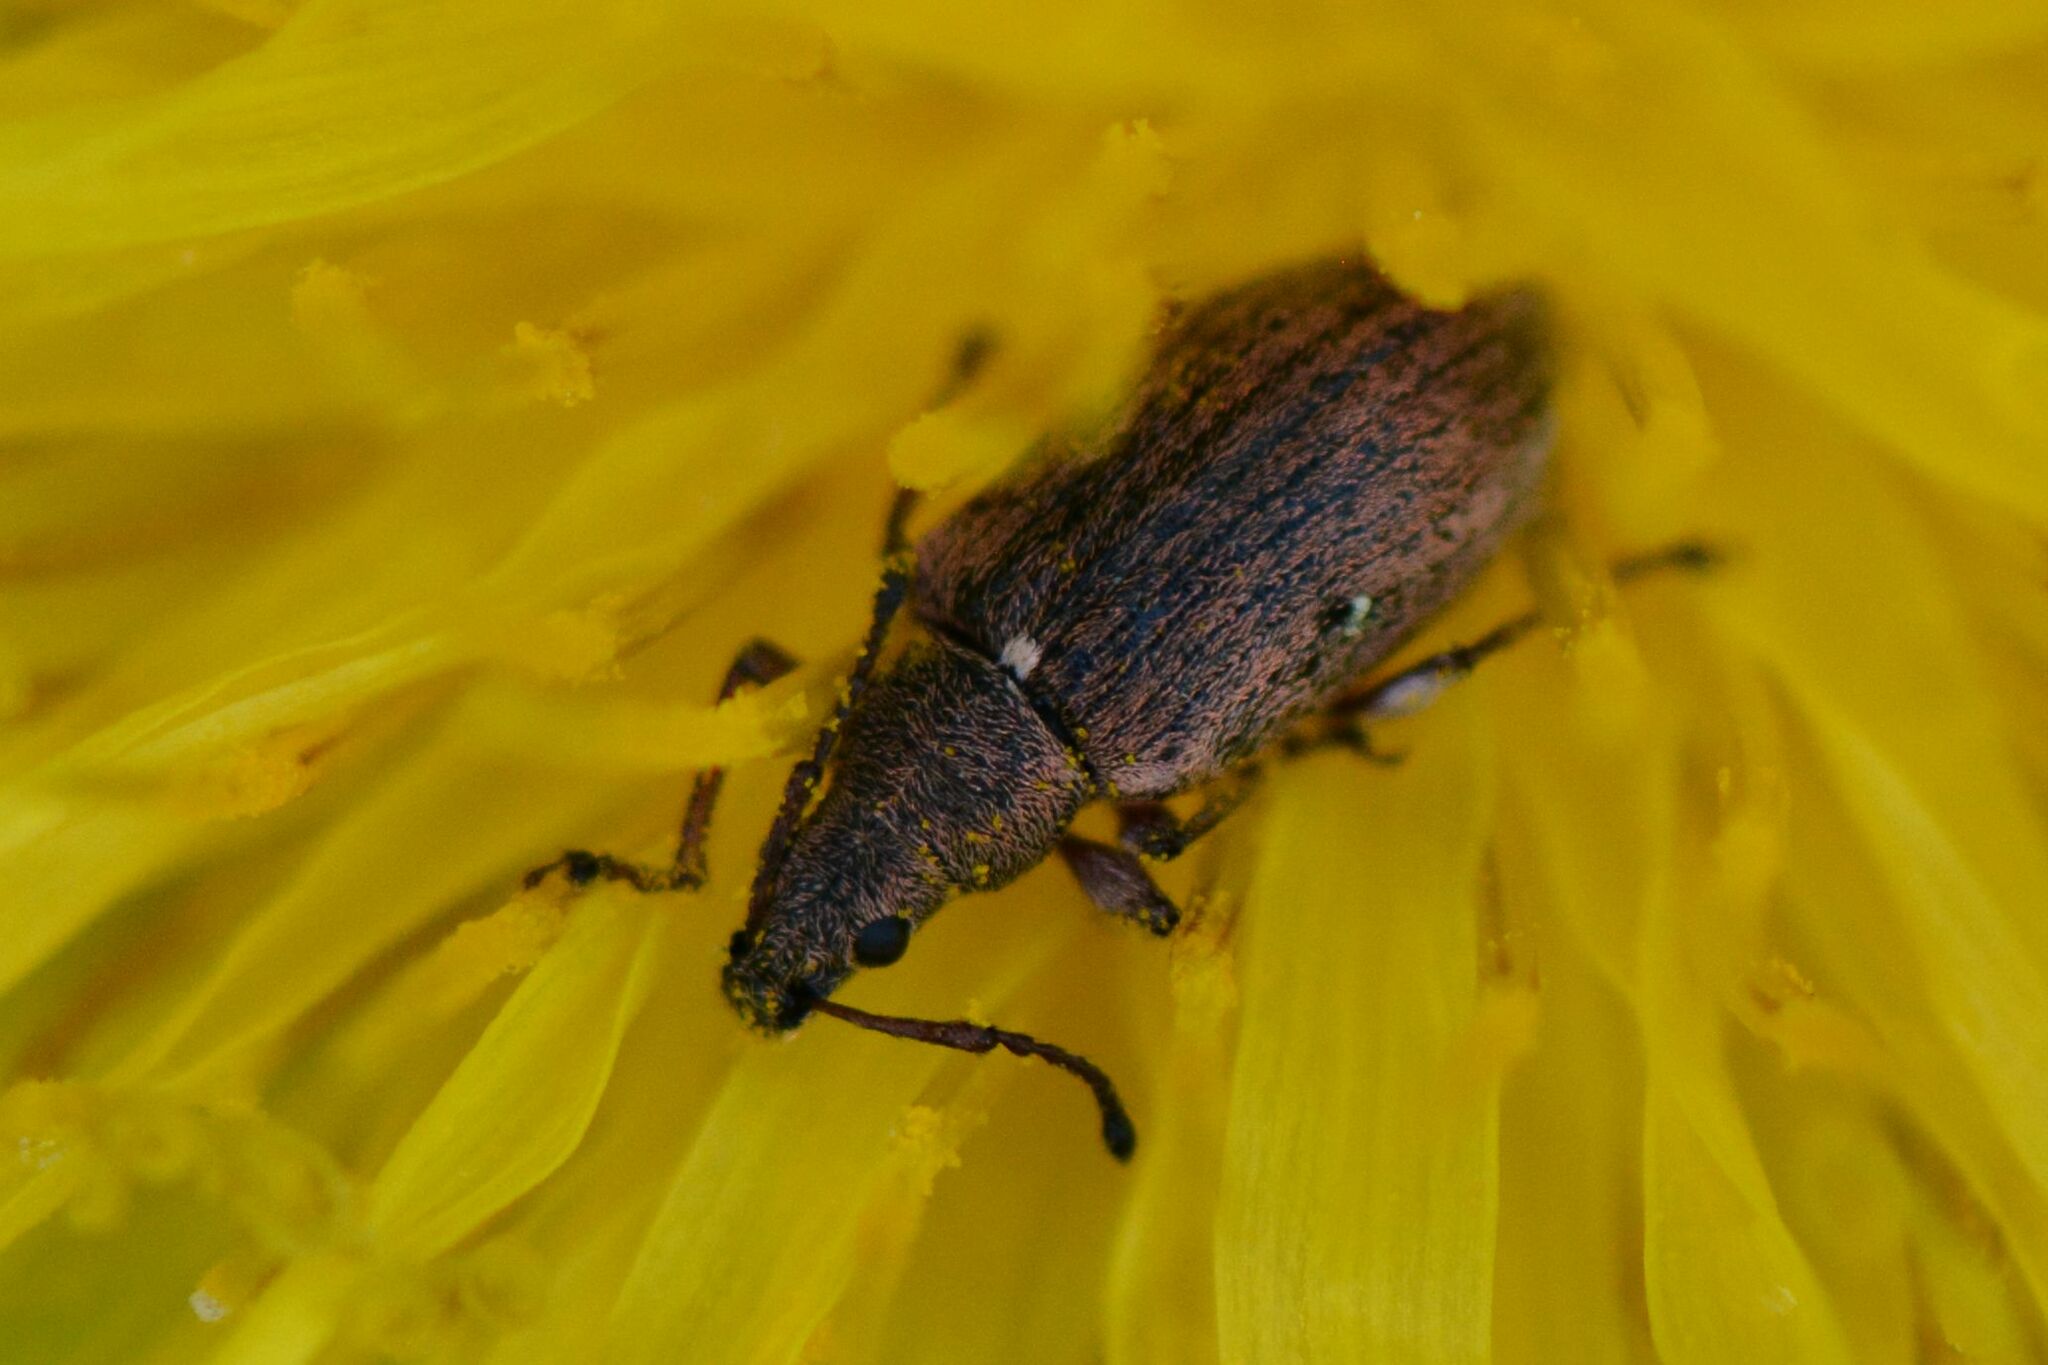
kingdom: Animalia
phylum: Arthropoda
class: Insecta
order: Coleoptera
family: Curculionidae
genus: Phyllobius
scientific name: Phyllobius pyri
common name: Common leaf weevil
